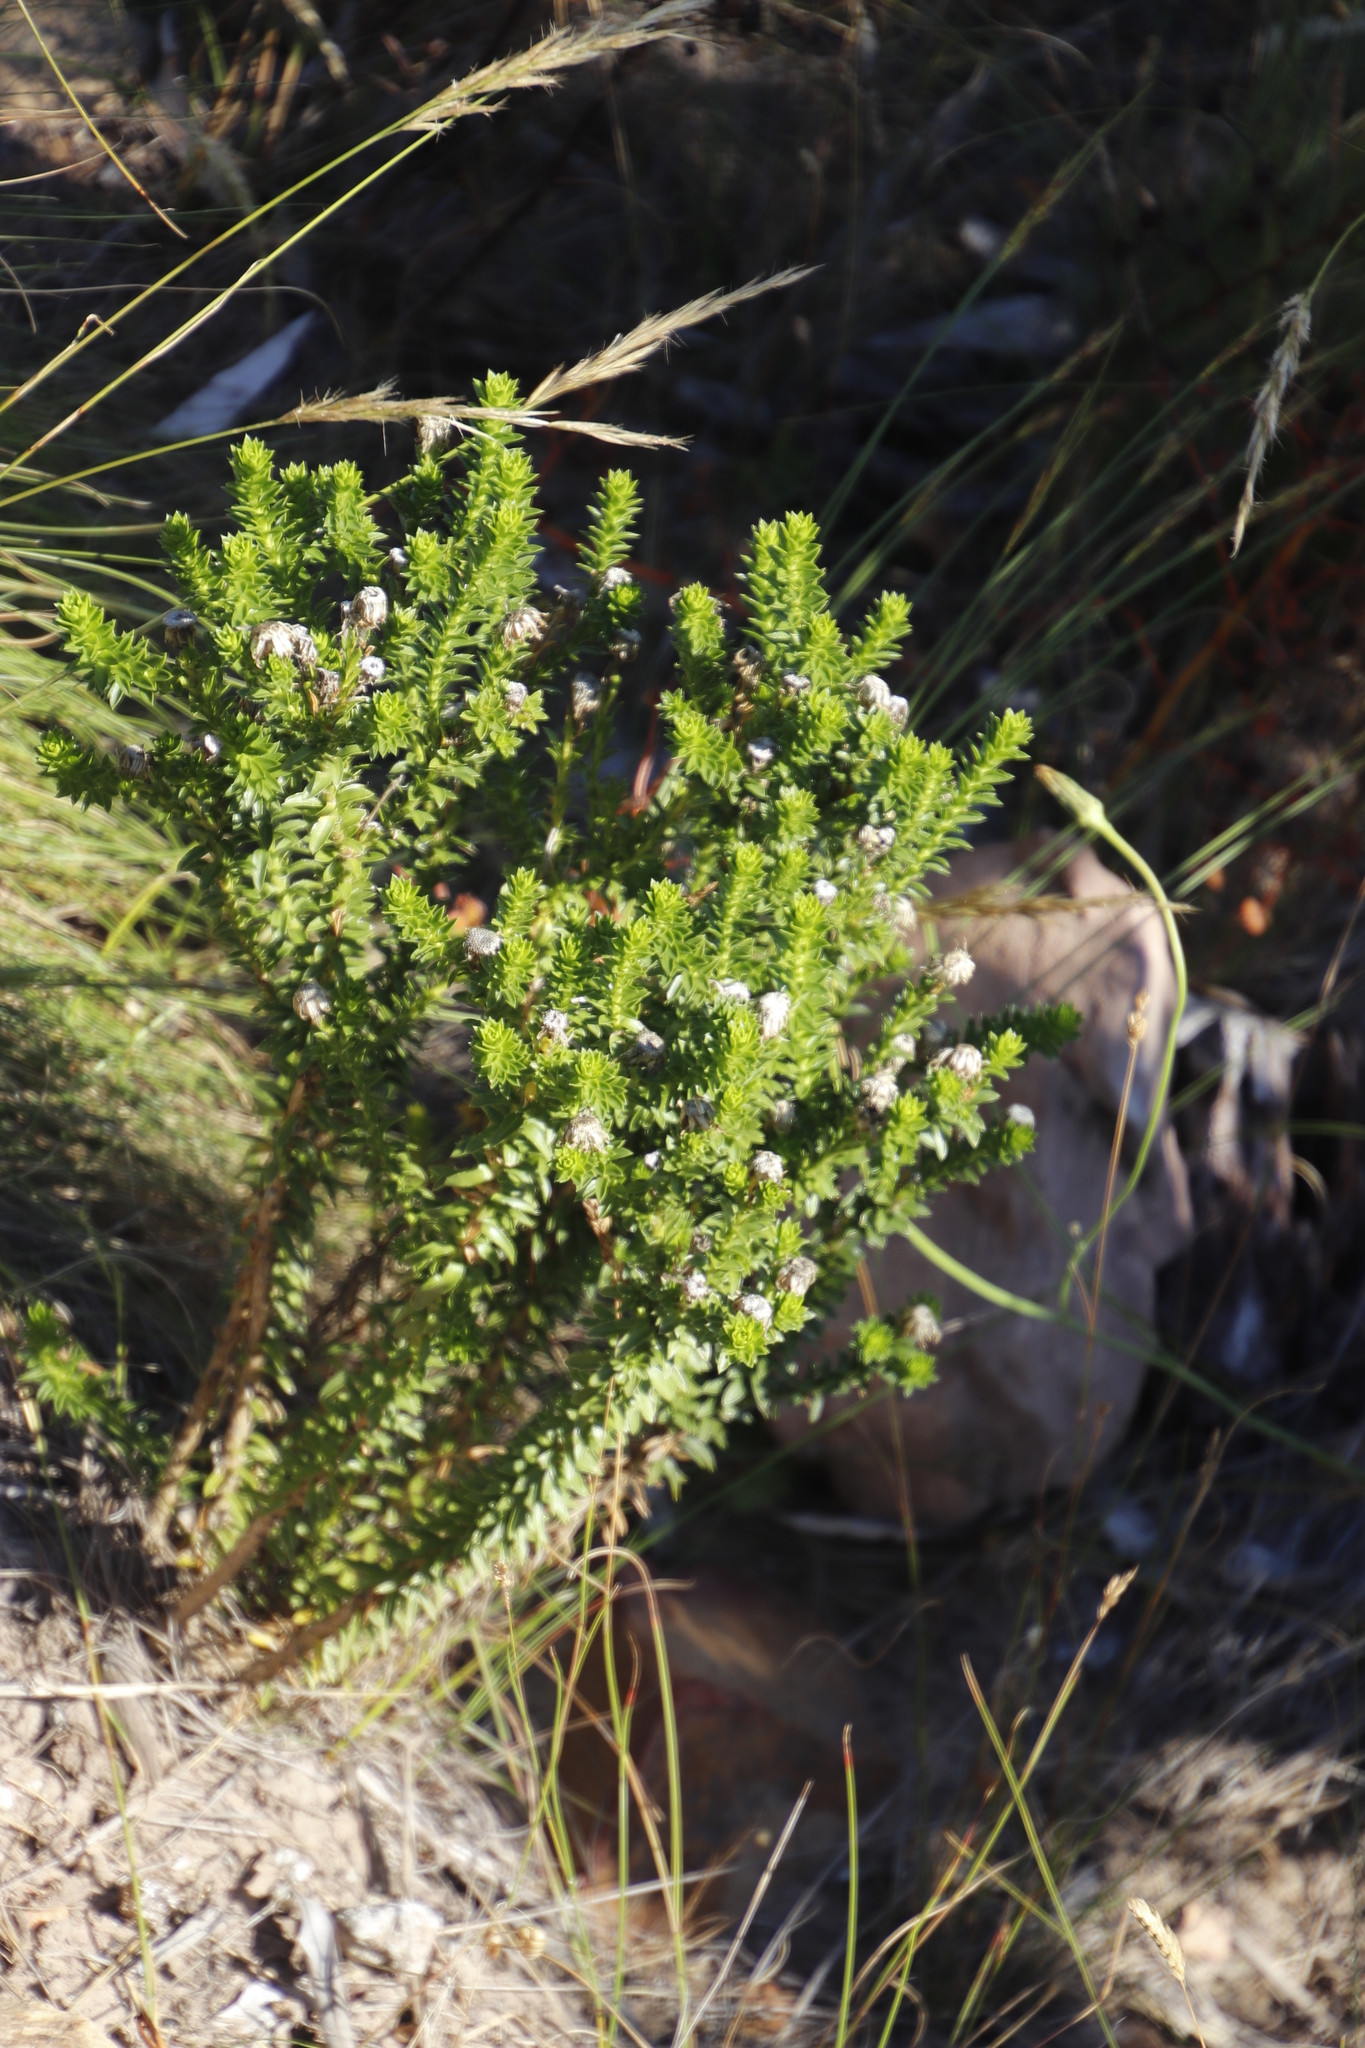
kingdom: Plantae
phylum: Tracheophyta
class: Magnoliopsida
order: Asterales
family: Asteraceae
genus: Felicia
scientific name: Felicia echinata
